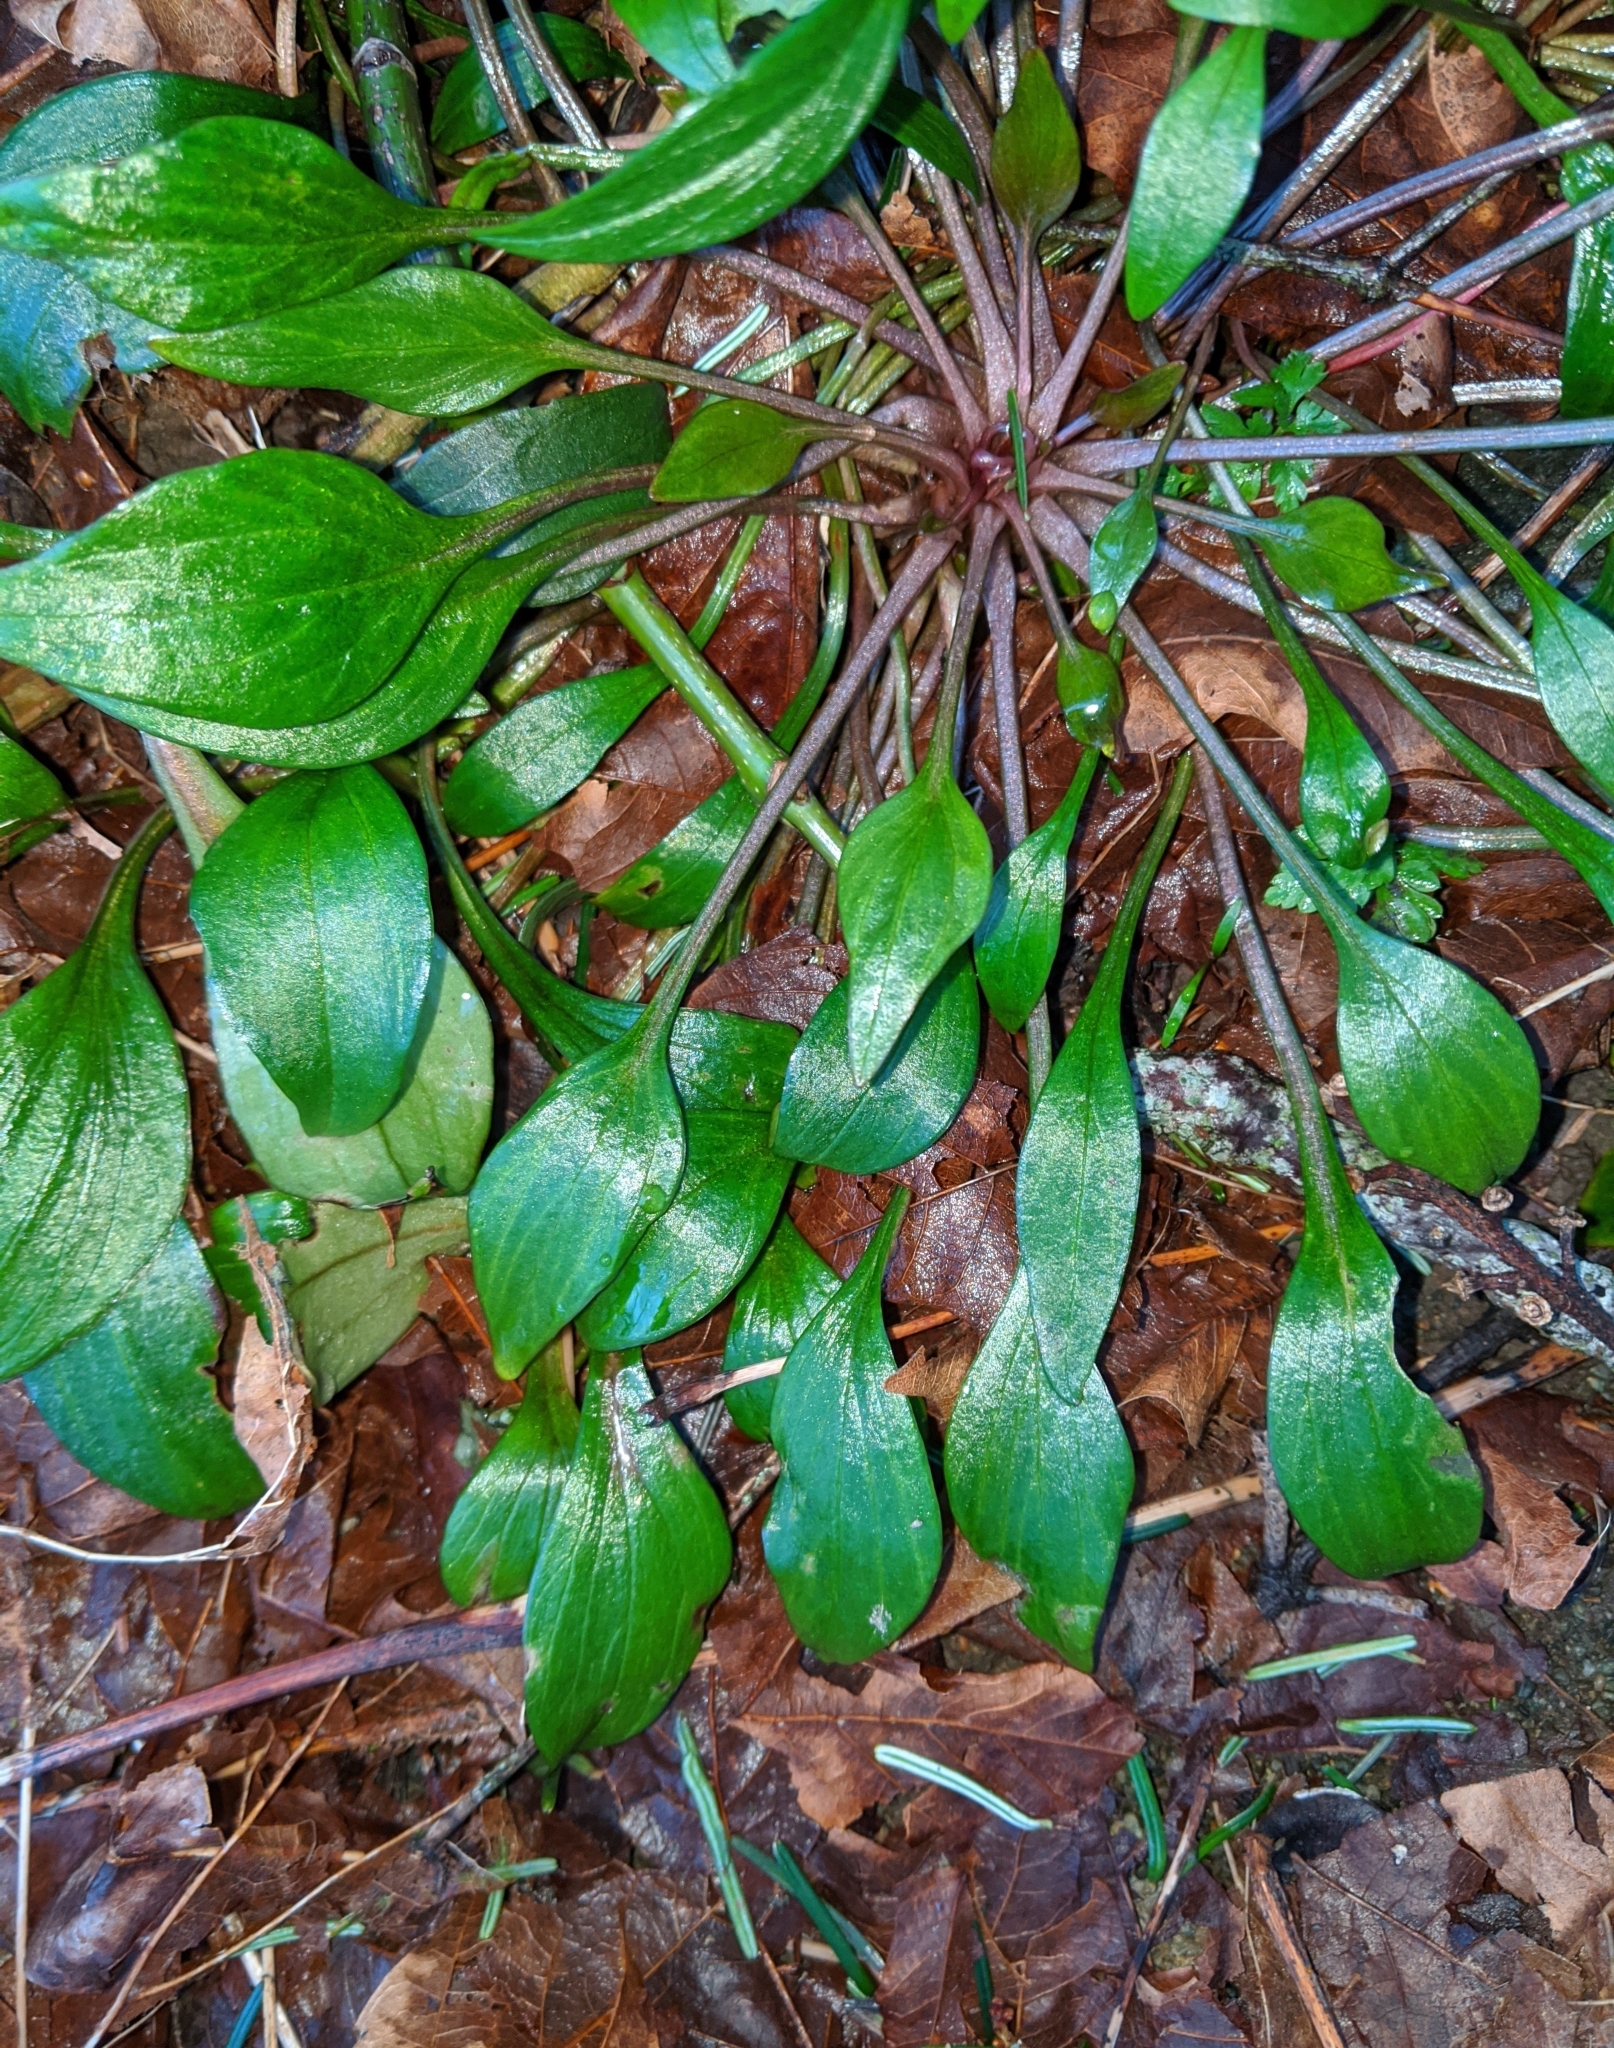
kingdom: Plantae
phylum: Tracheophyta
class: Magnoliopsida
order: Caryophyllales
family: Montiaceae
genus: Claytonia
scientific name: Claytonia sibirica
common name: Pink purslane
